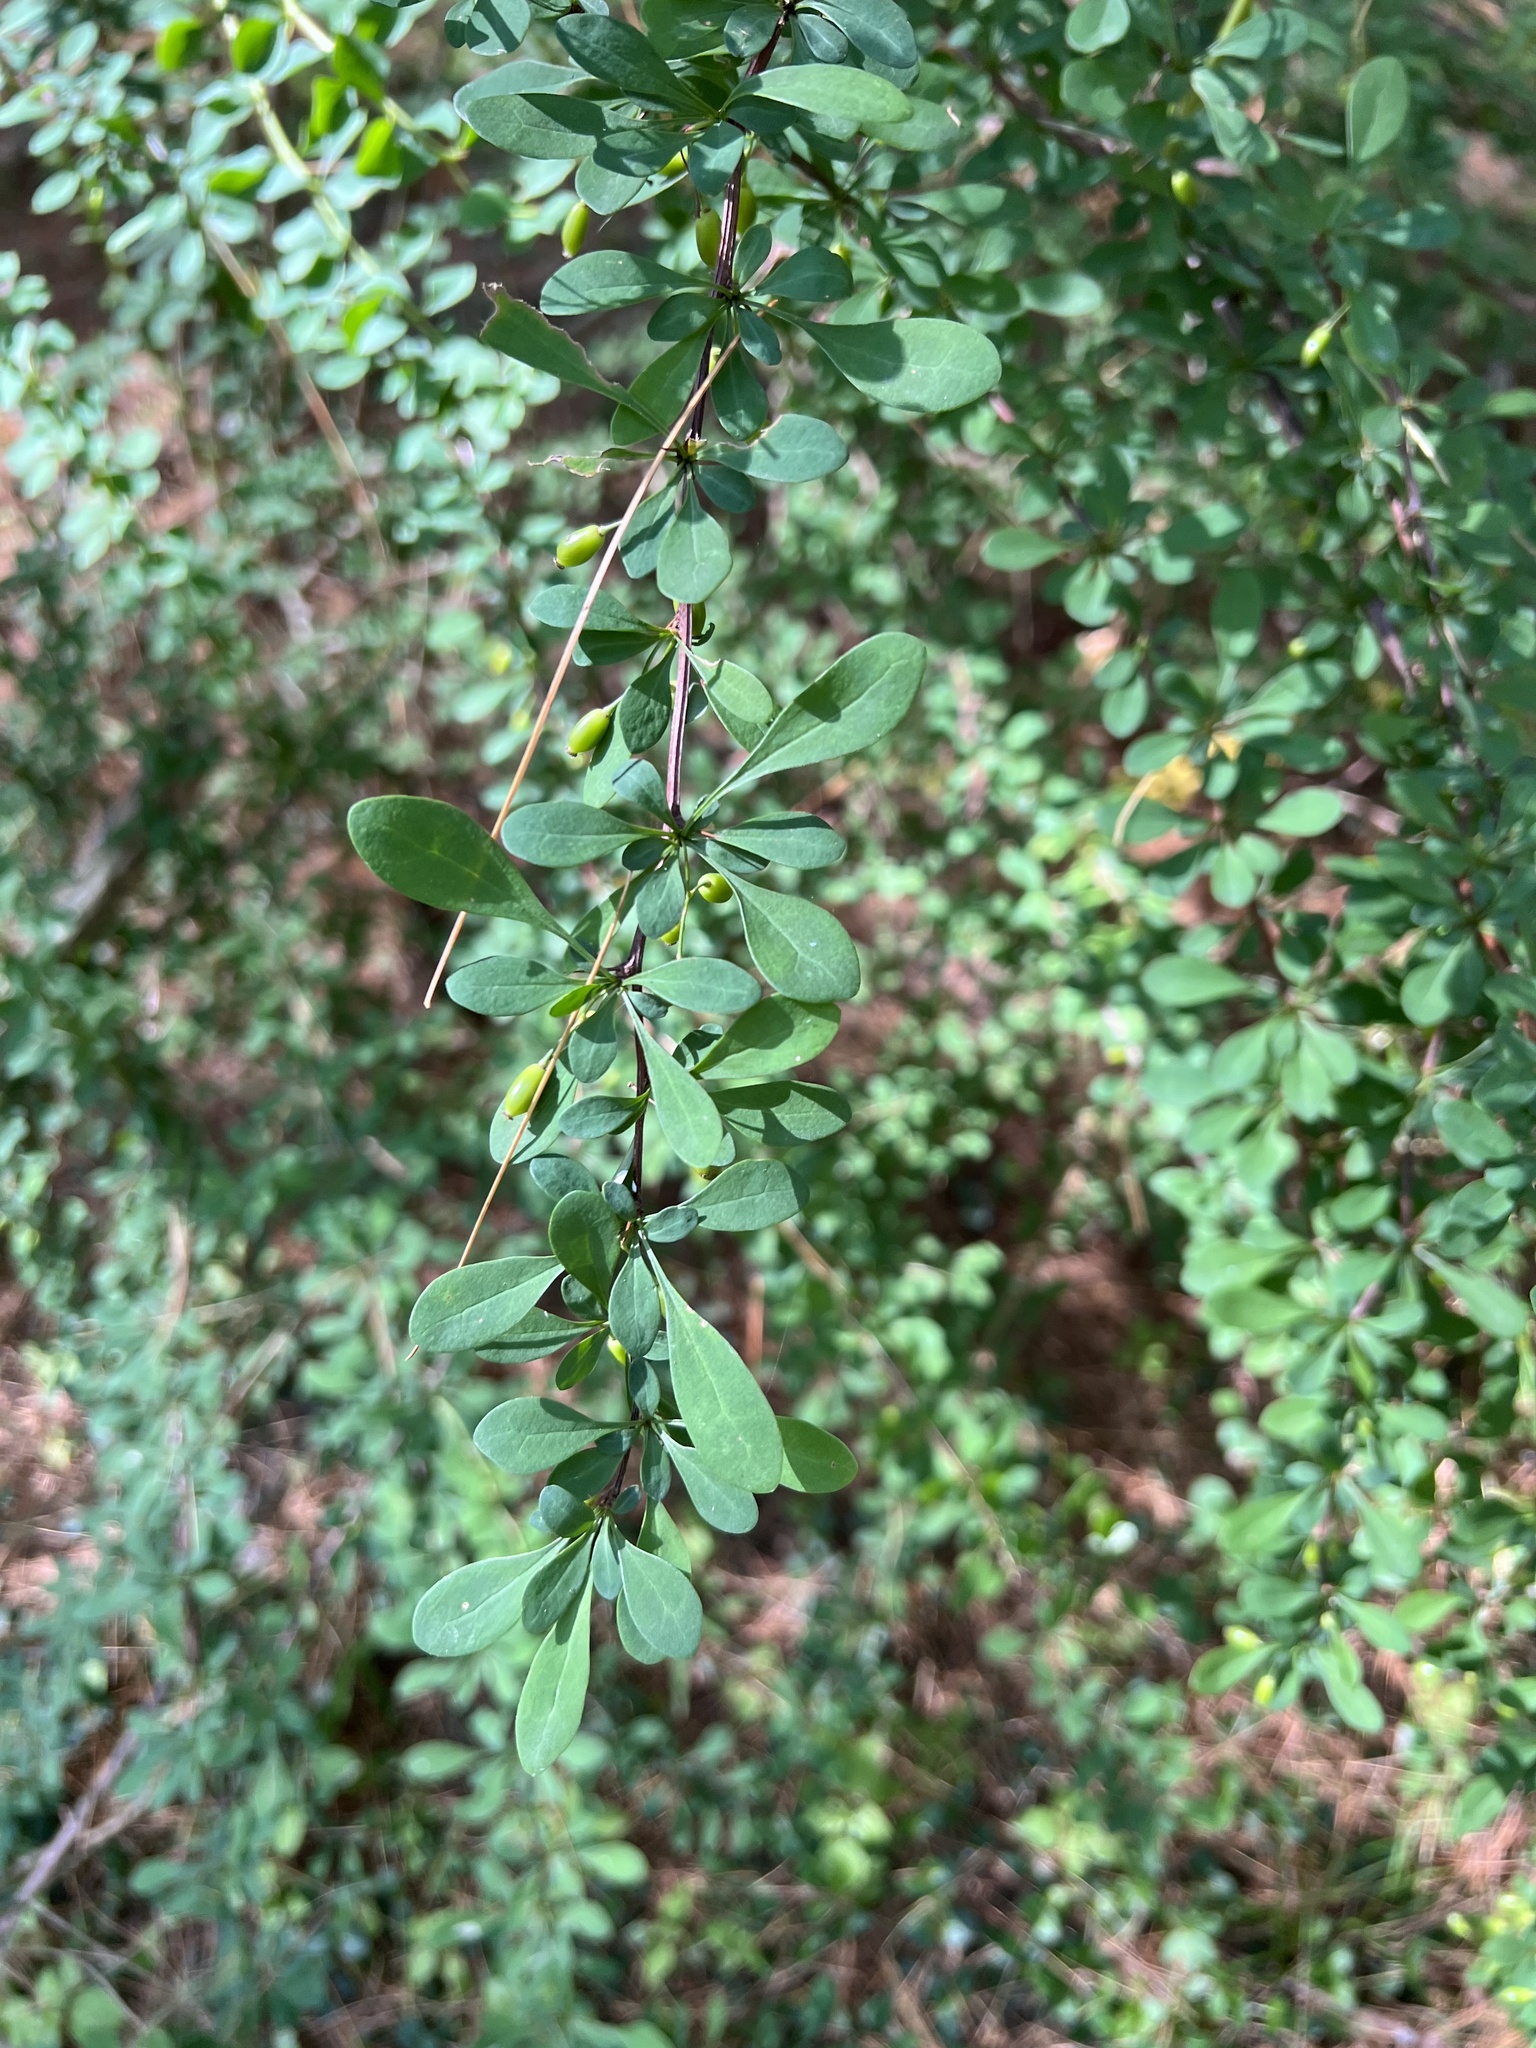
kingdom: Plantae
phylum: Tracheophyta
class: Magnoliopsida
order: Ranunculales
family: Berberidaceae
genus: Berberis
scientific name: Berberis thunbergii
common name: Japanese barberry
